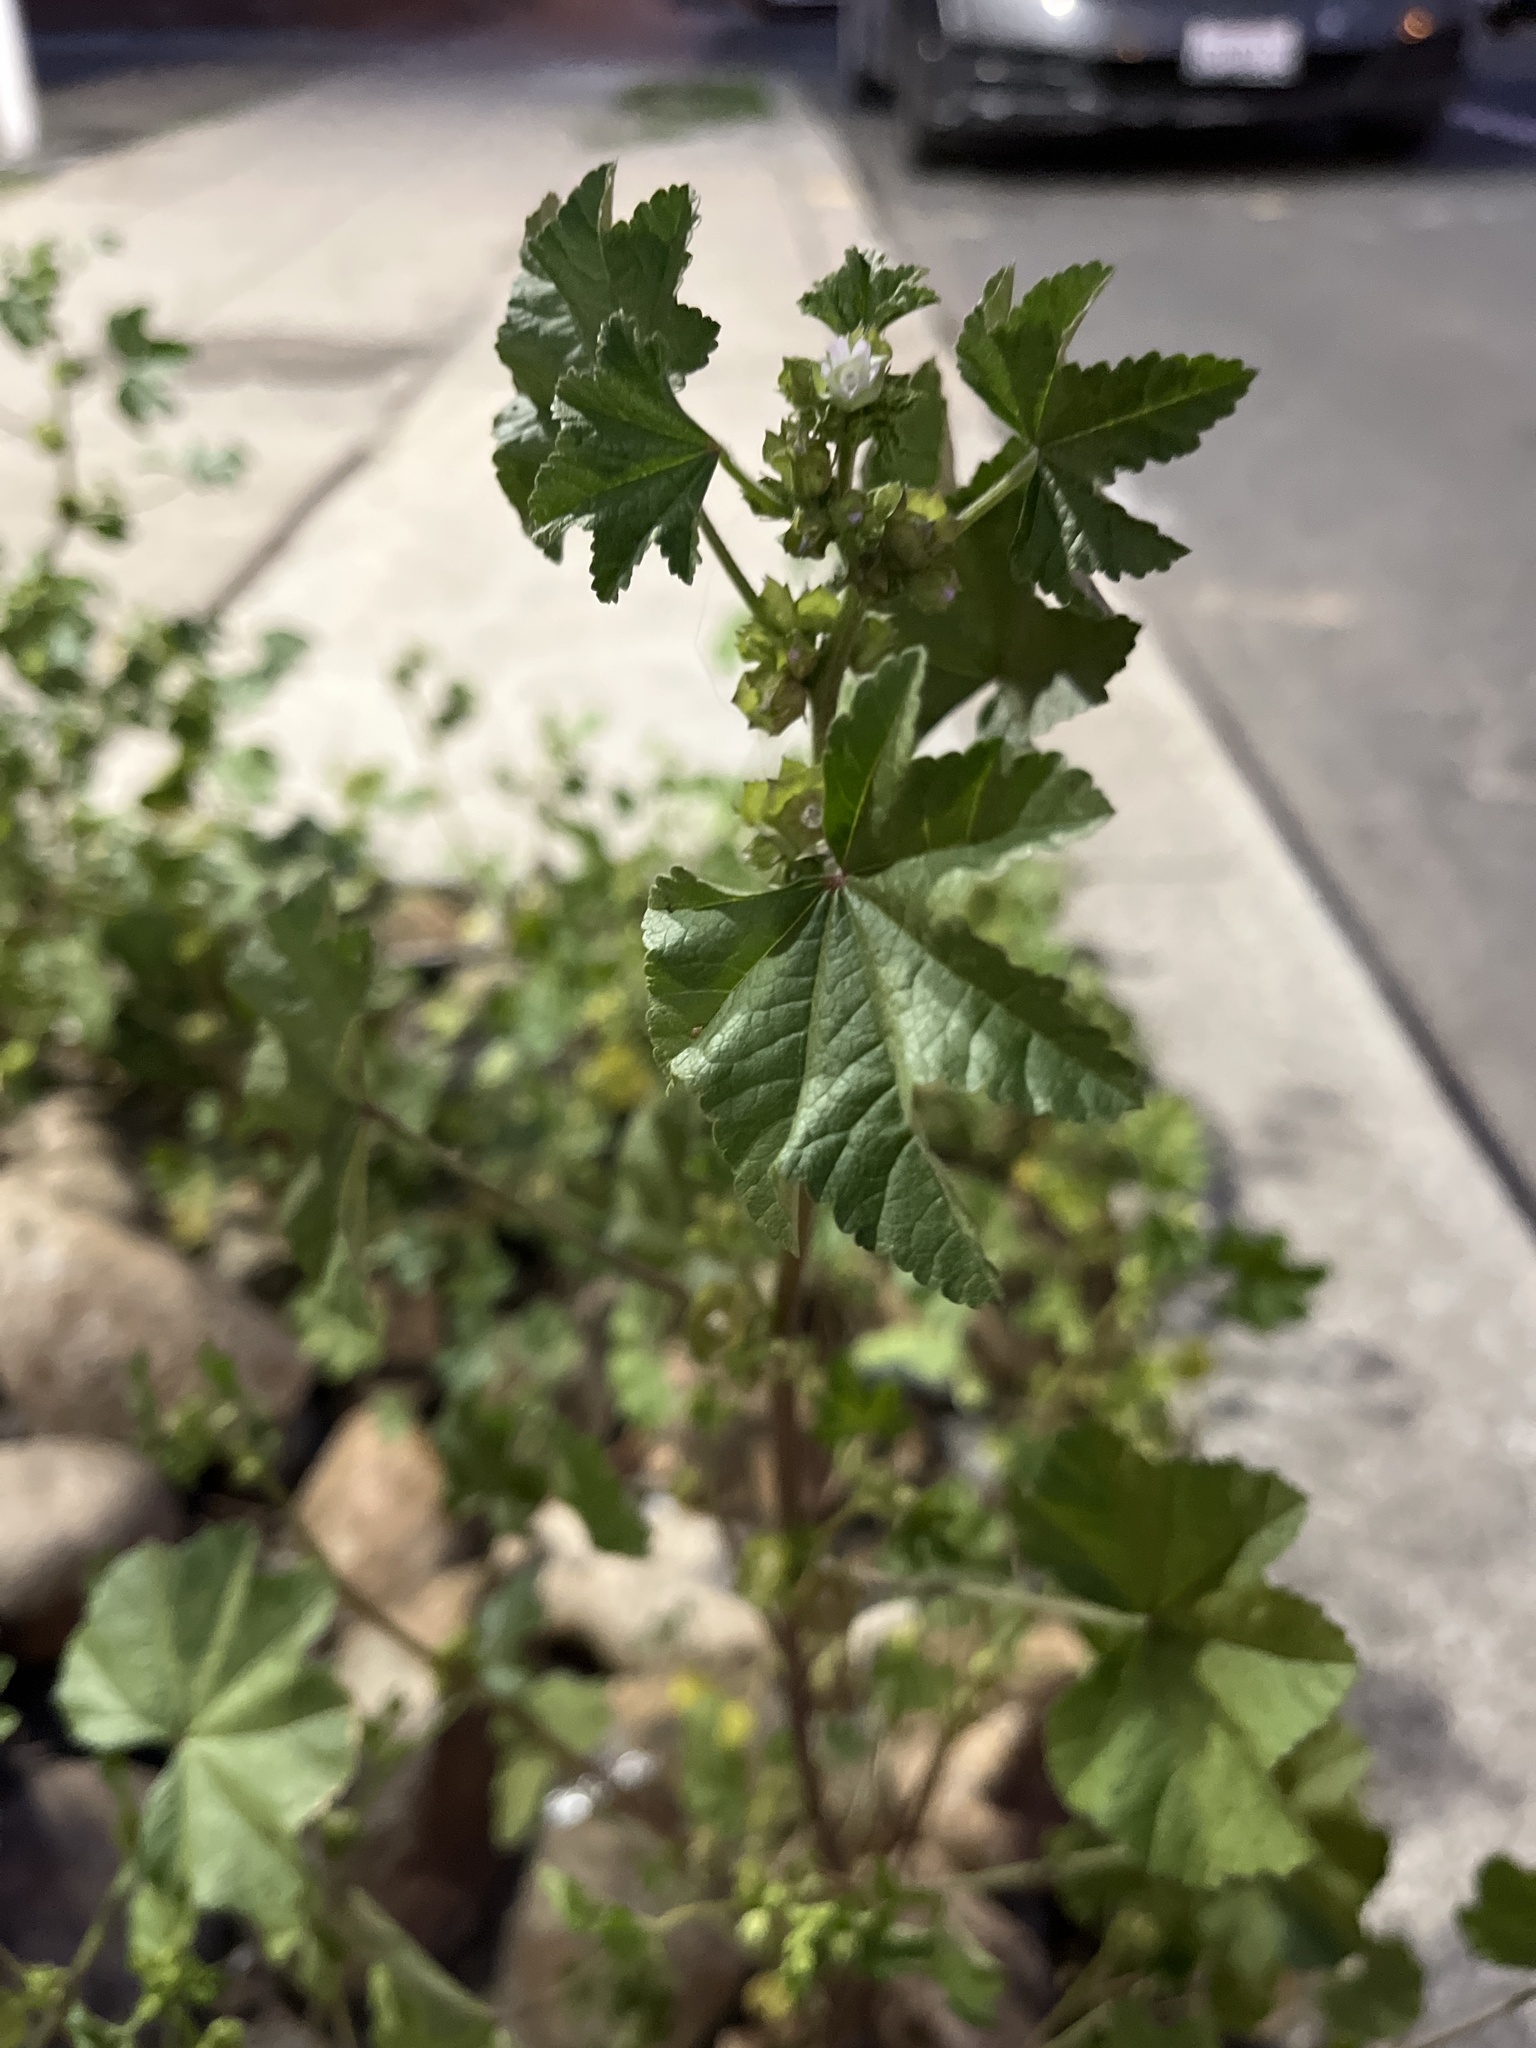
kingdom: Plantae
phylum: Tracheophyta
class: Magnoliopsida
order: Malvales
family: Malvaceae
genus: Malva
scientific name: Malva parviflora
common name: Least mallow
